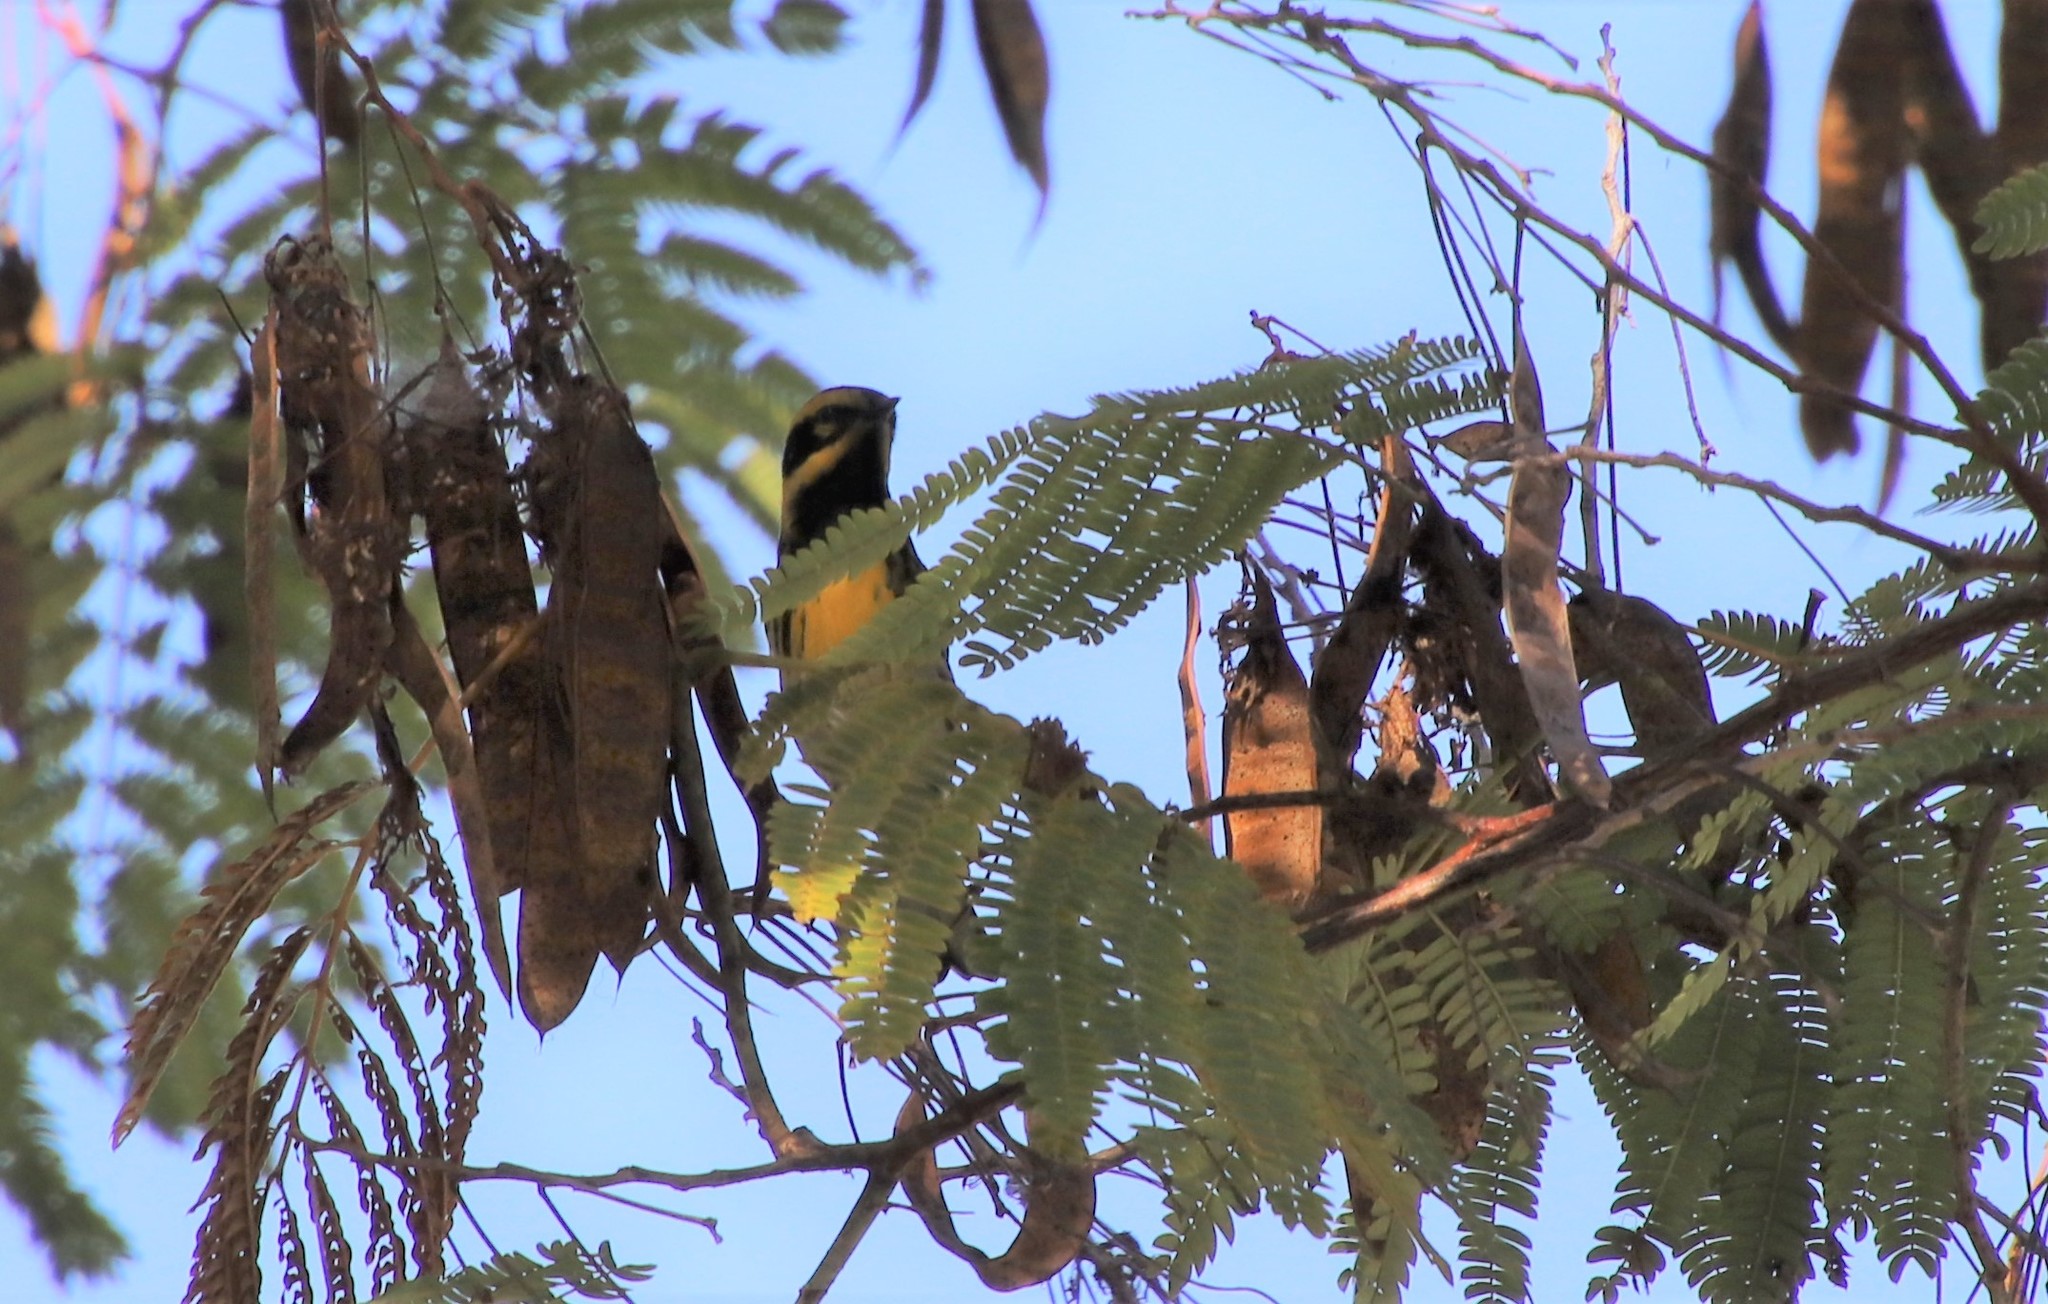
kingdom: Animalia
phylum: Chordata
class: Aves
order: Passeriformes
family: Parulidae
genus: Setophaga
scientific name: Setophaga townsendi
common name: Townsend's warbler
